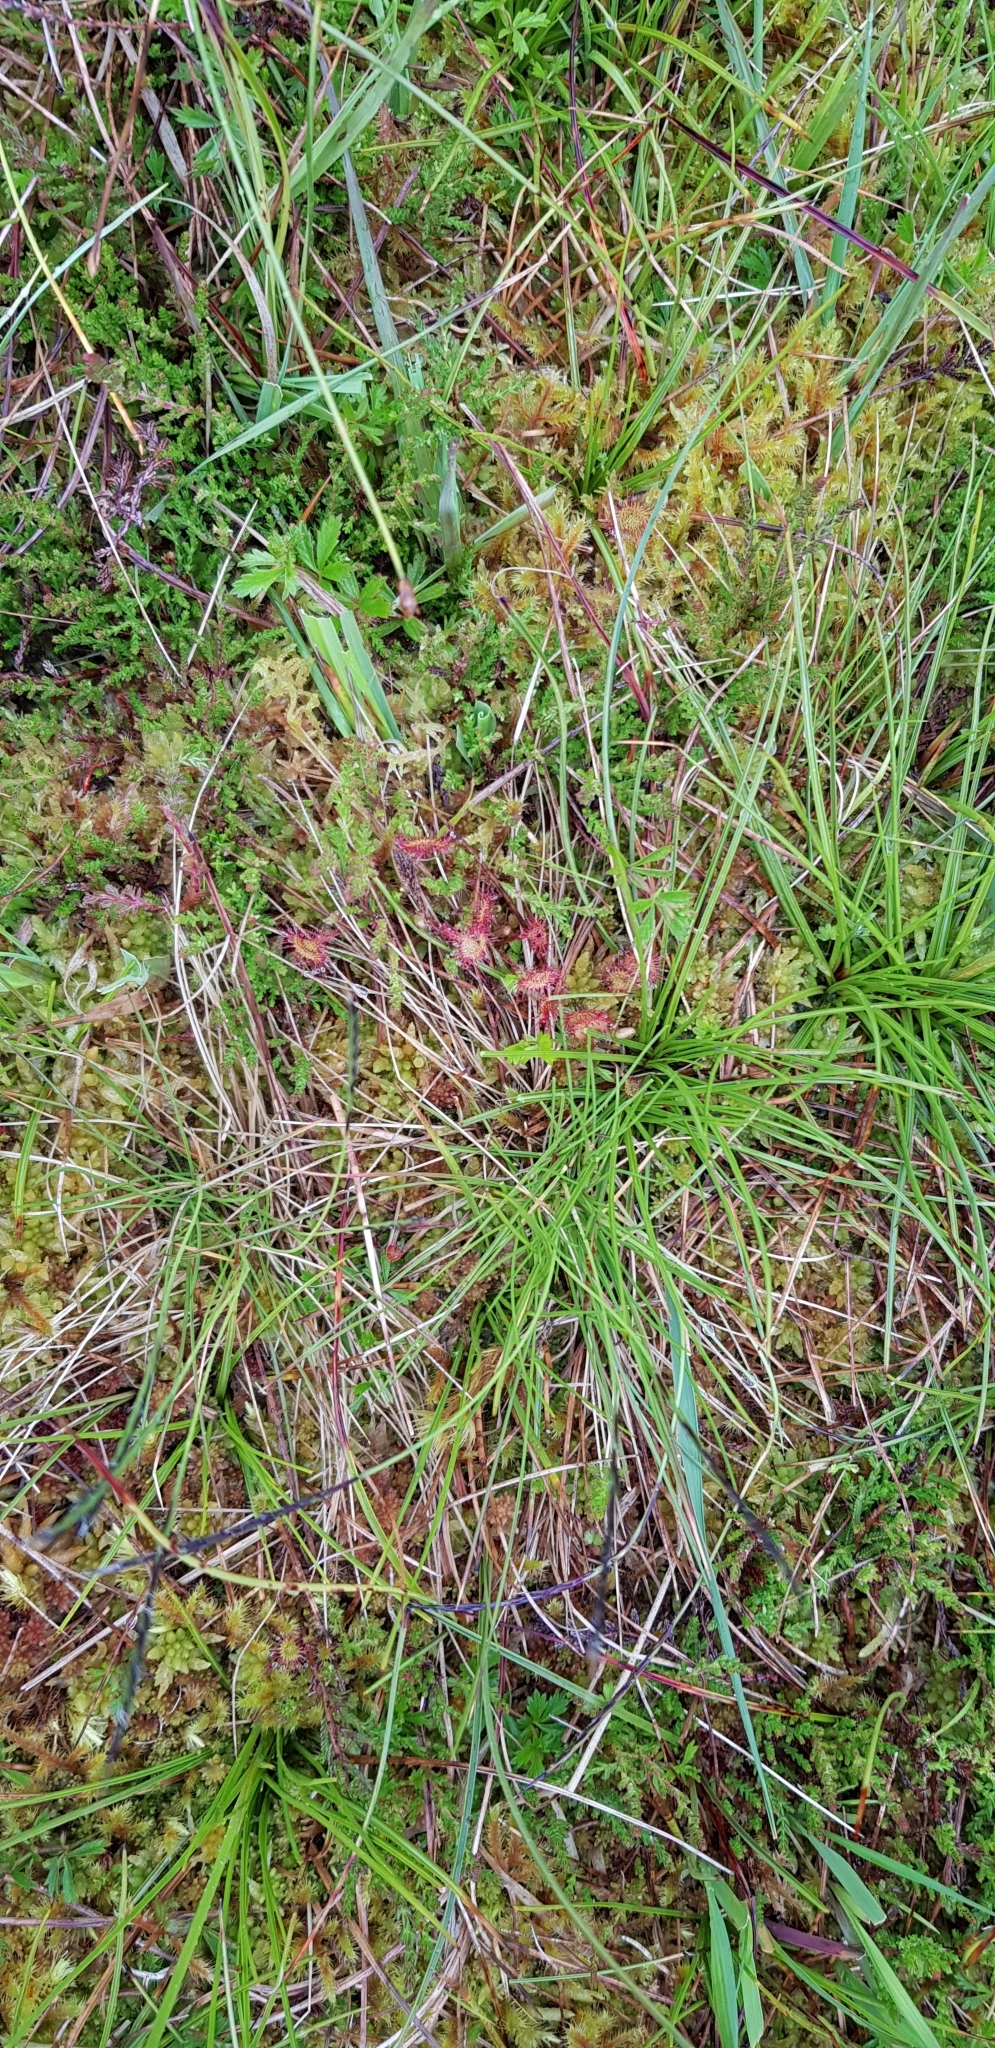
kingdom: Plantae
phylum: Tracheophyta
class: Magnoliopsida
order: Caryophyllales
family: Droseraceae
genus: Drosera
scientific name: Drosera rotundifolia
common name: Round-leaved sundew
